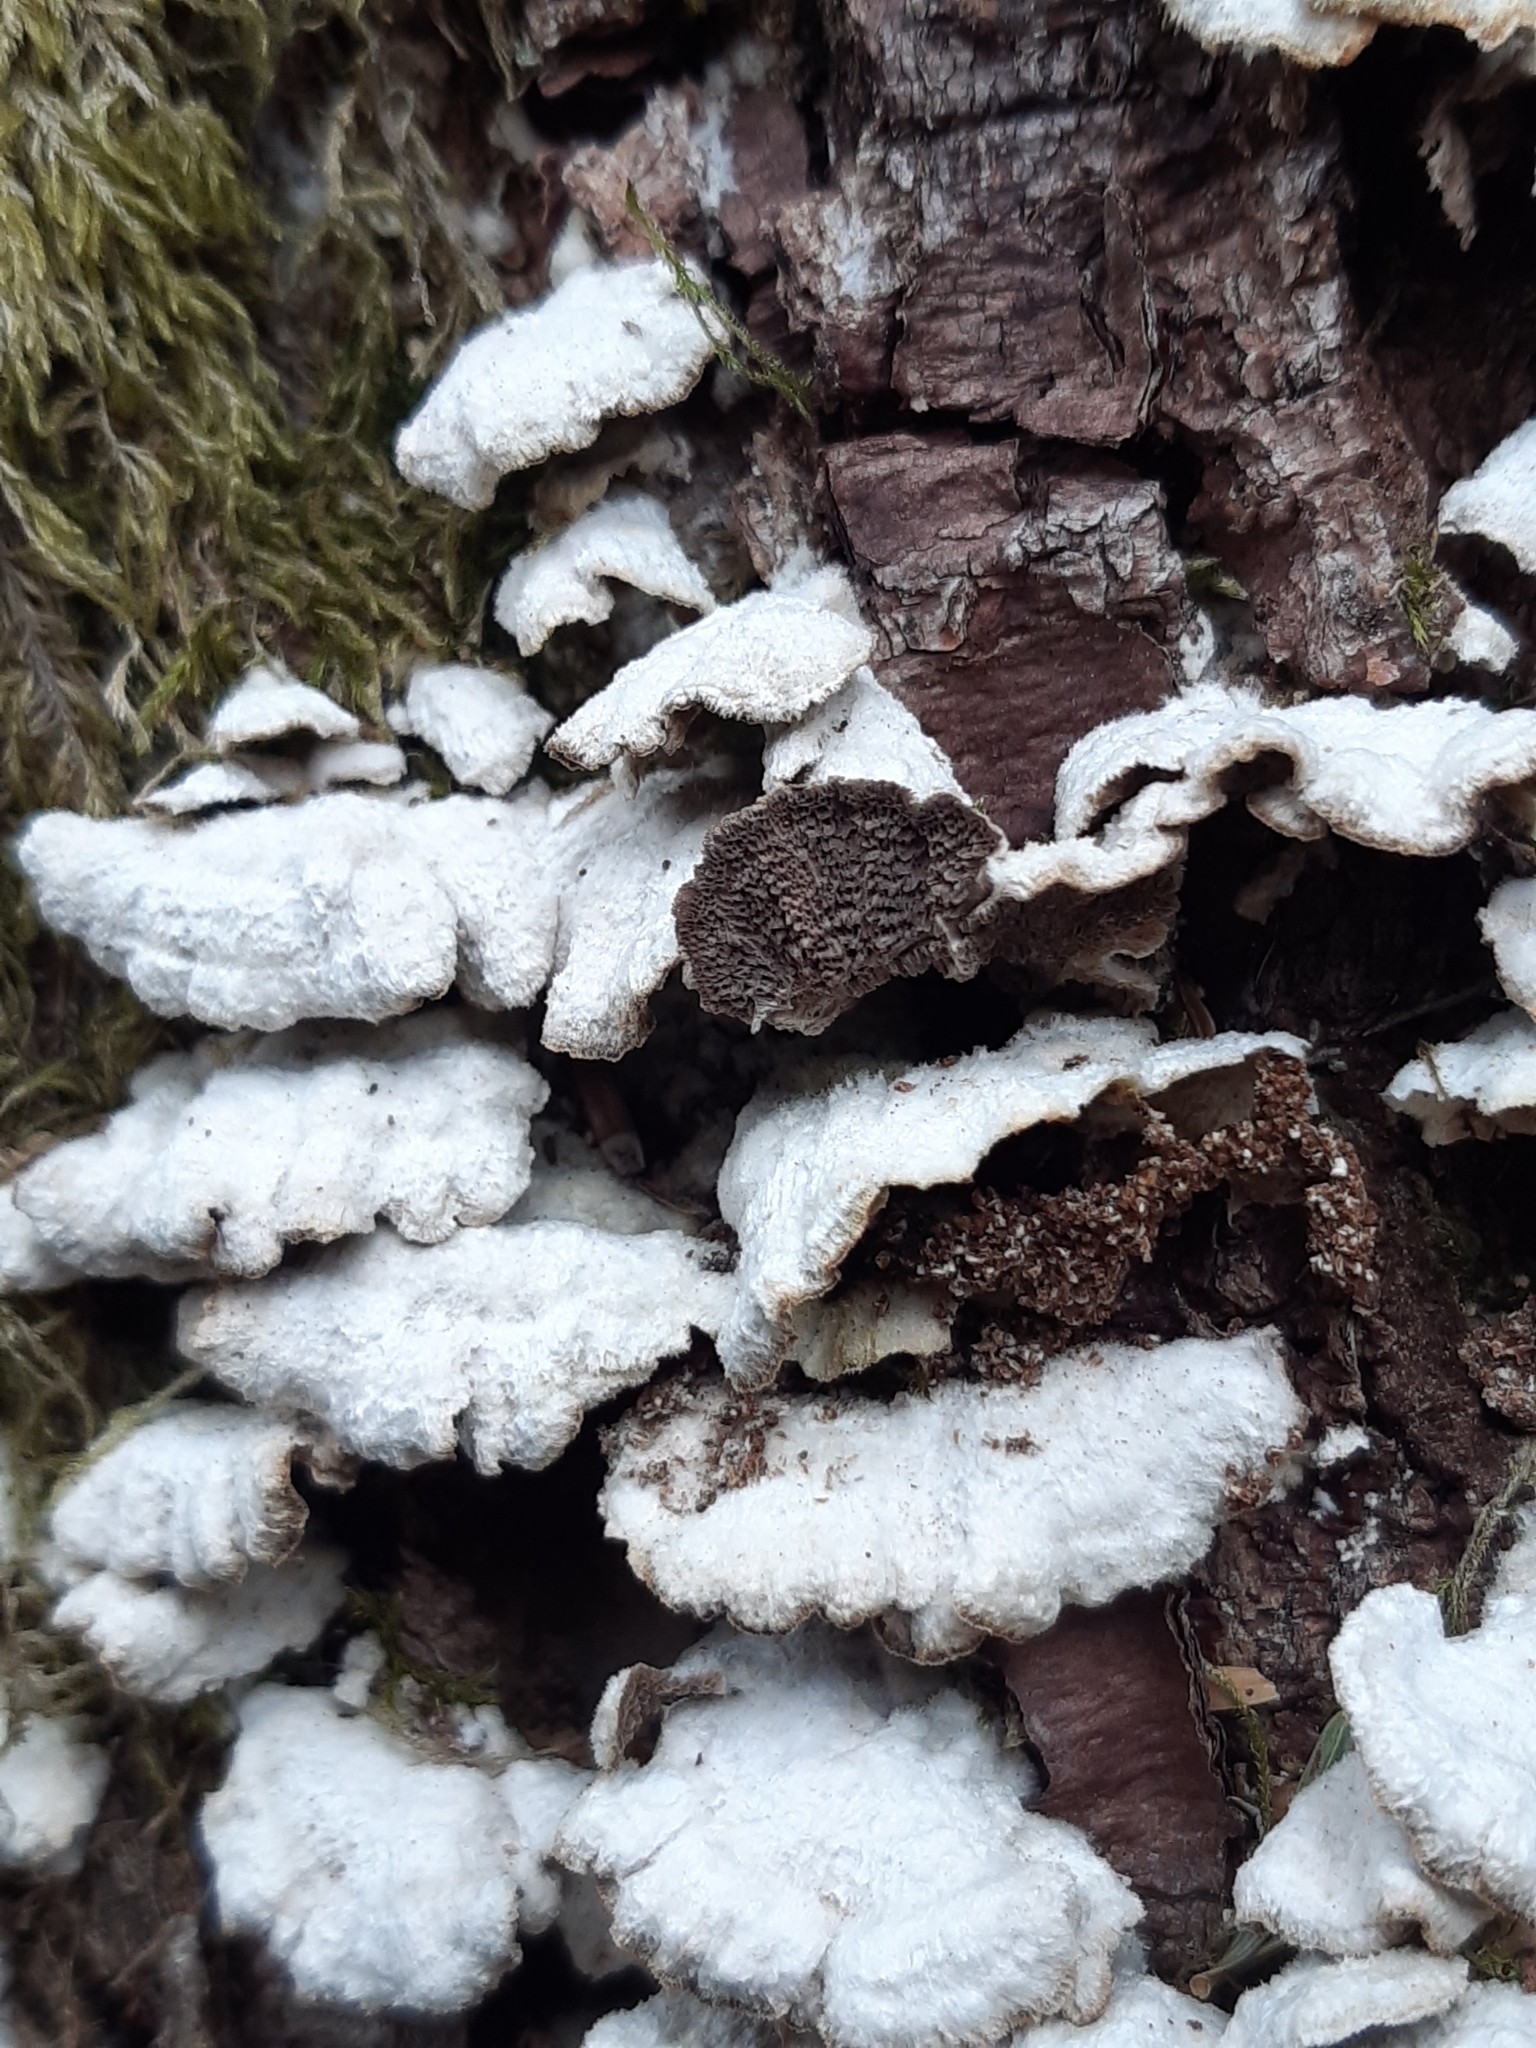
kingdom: Fungi
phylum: Basidiomycota
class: Agaricomycetes
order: Hymenochaetales
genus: Trichaptum
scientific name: Trichaptum abietinum
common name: Purplepore bracket
